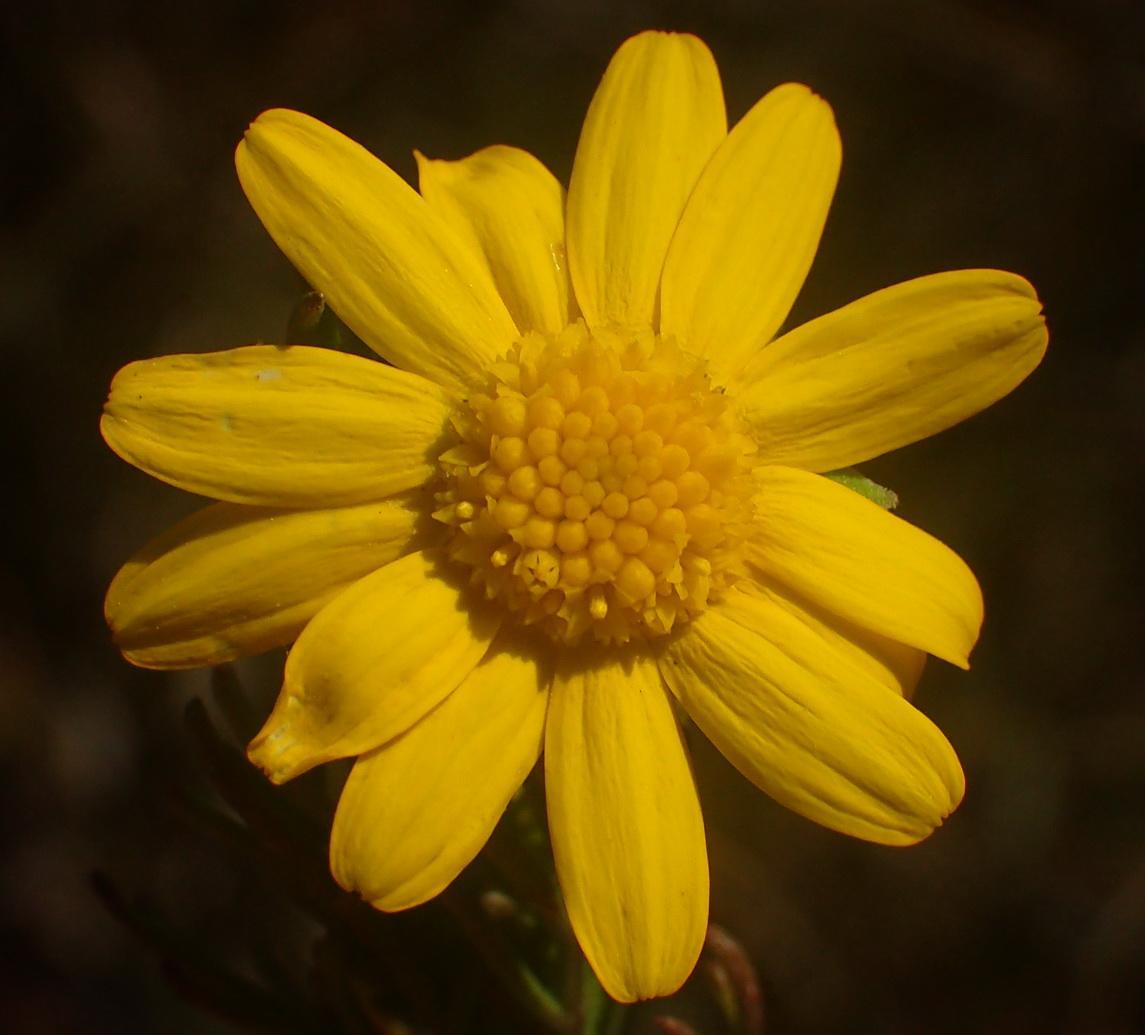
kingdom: Plantae
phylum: Tracheophyta
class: Magnoliopsida
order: Asterales
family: Asteraceae
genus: Euryops
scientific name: Euryops pinnatipartitus
